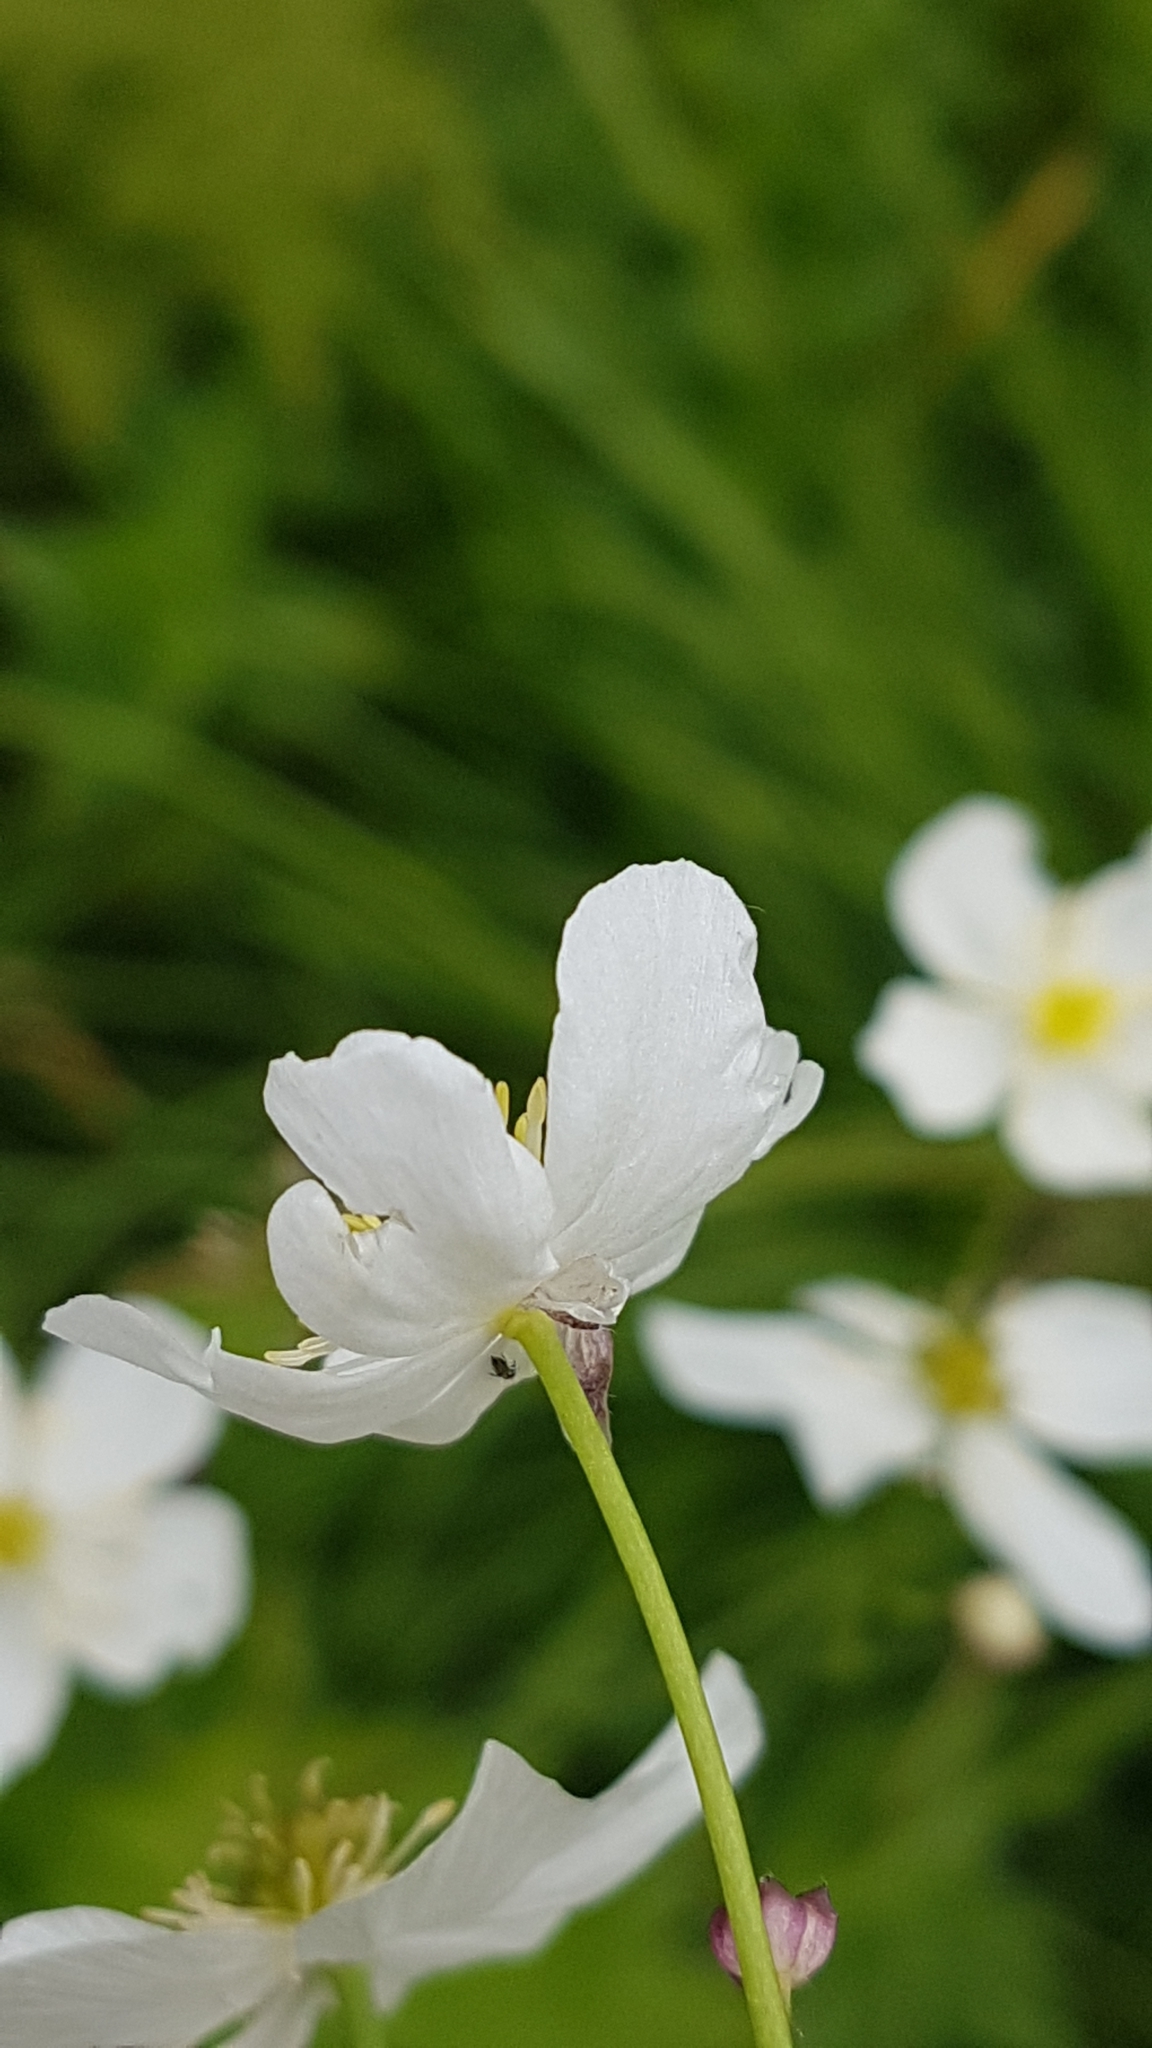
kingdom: Plantae
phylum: Tracheophyta
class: Magnoliopsida
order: Ranunculales
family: Ranunculaceae
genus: Ranunculus
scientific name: Ranunculus platanifolius
